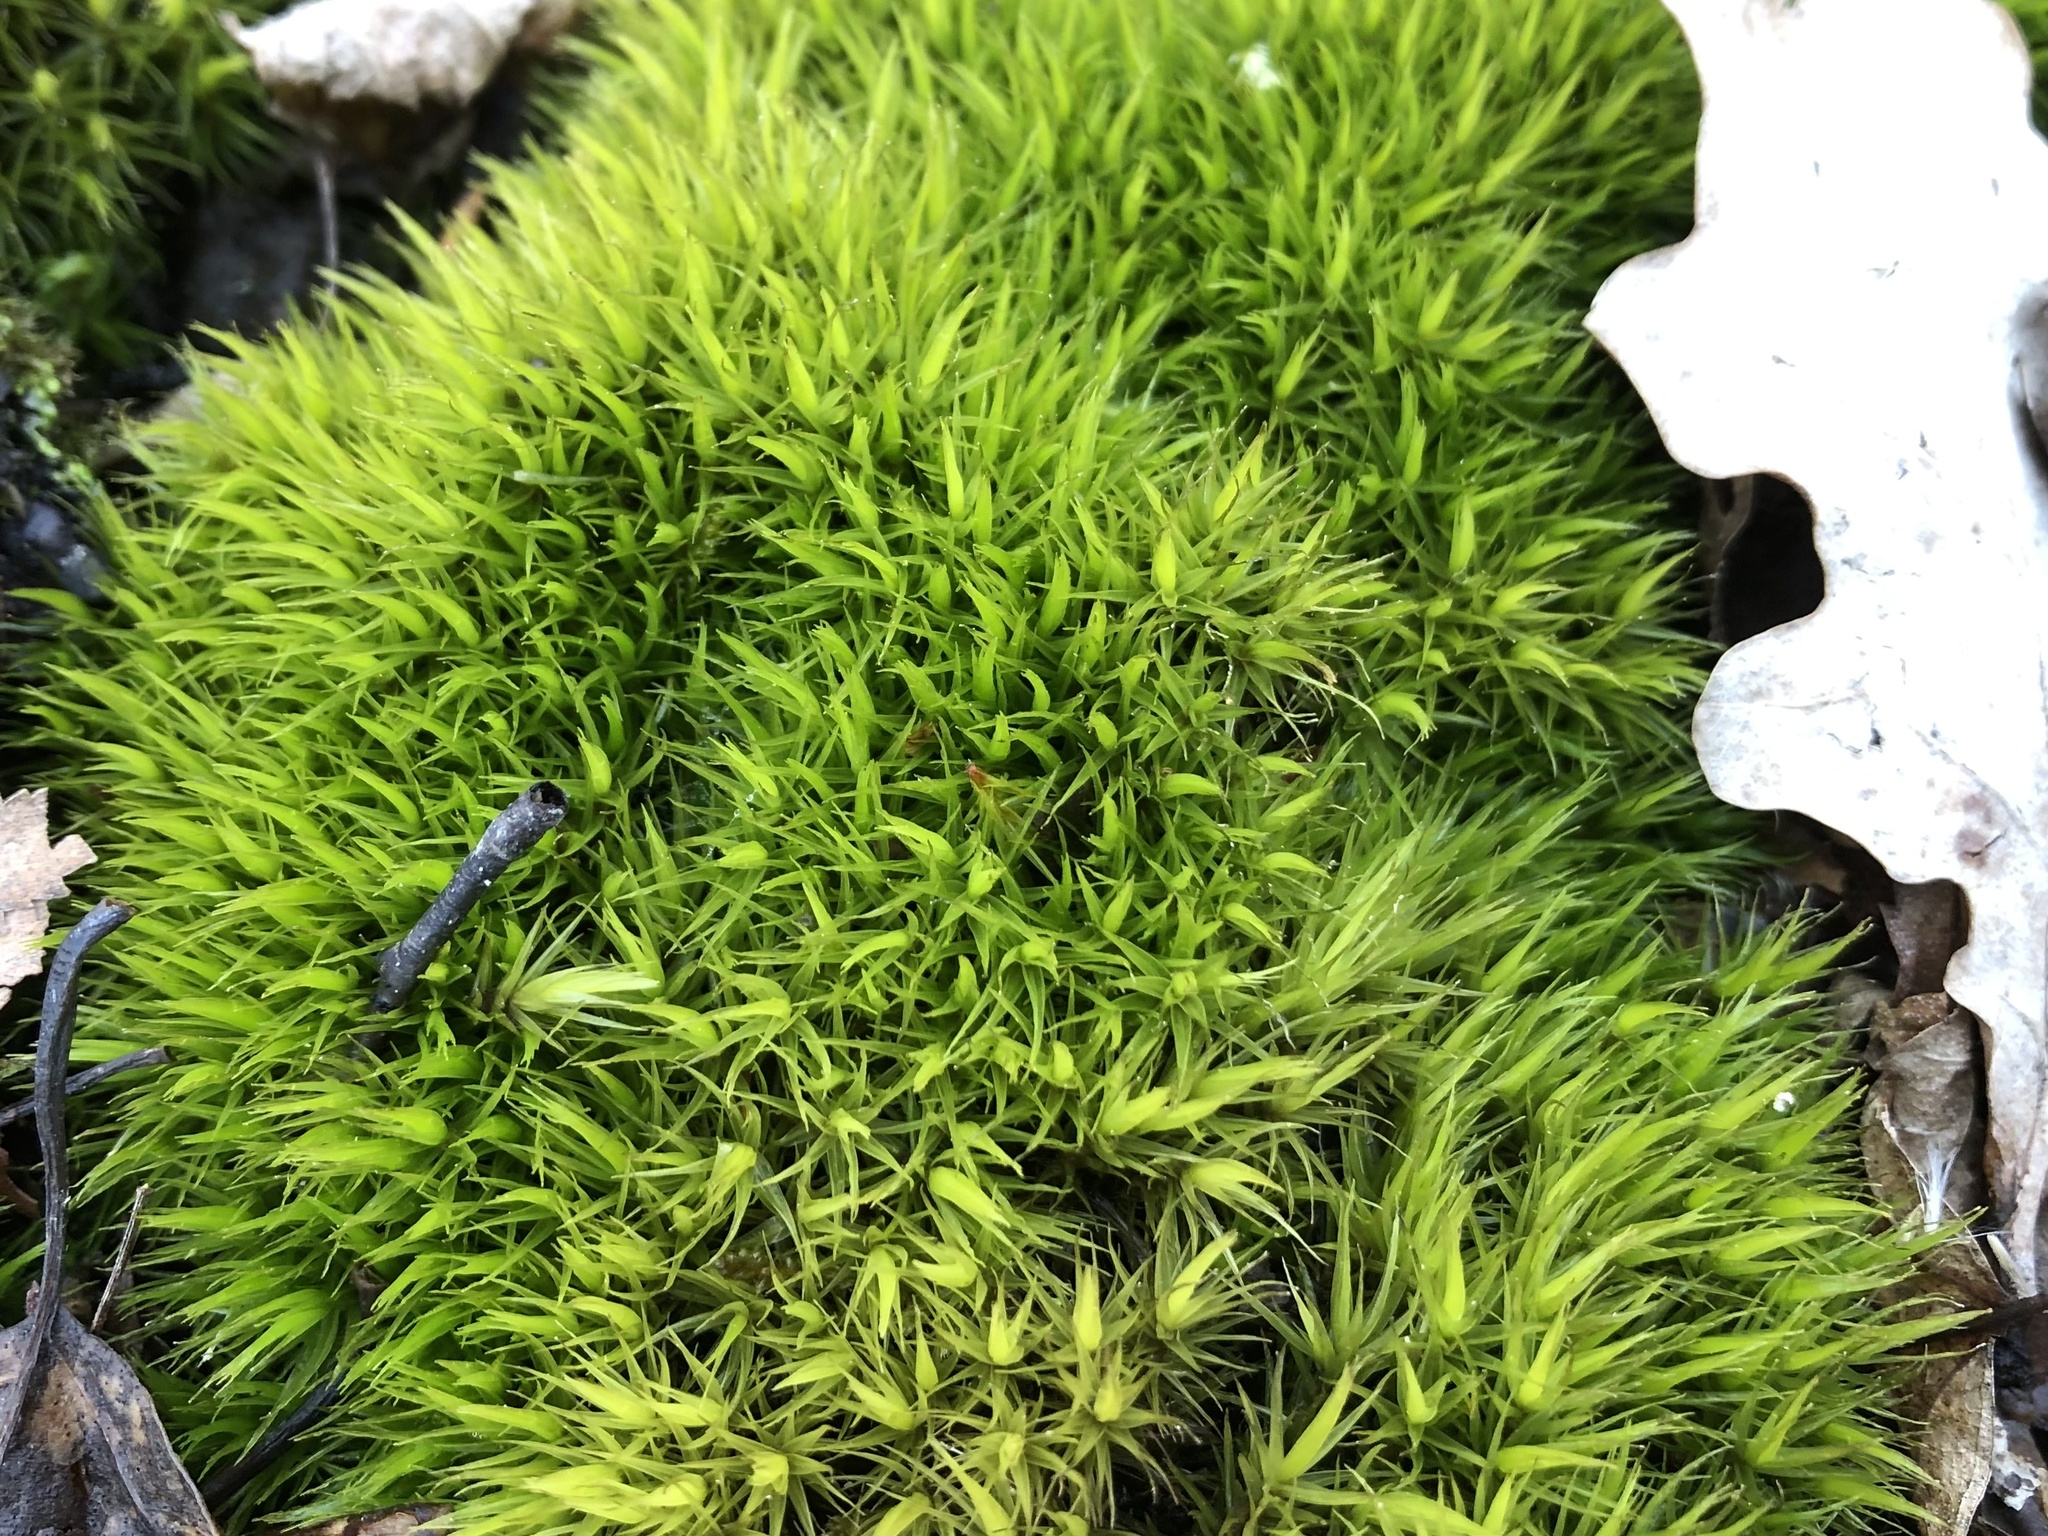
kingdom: Plantae
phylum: Bryophyta
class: Bryopsida
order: Dicranales
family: Dicranaceae
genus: Dicranum
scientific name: Dicranum scoparium
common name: Broom fork-moss
